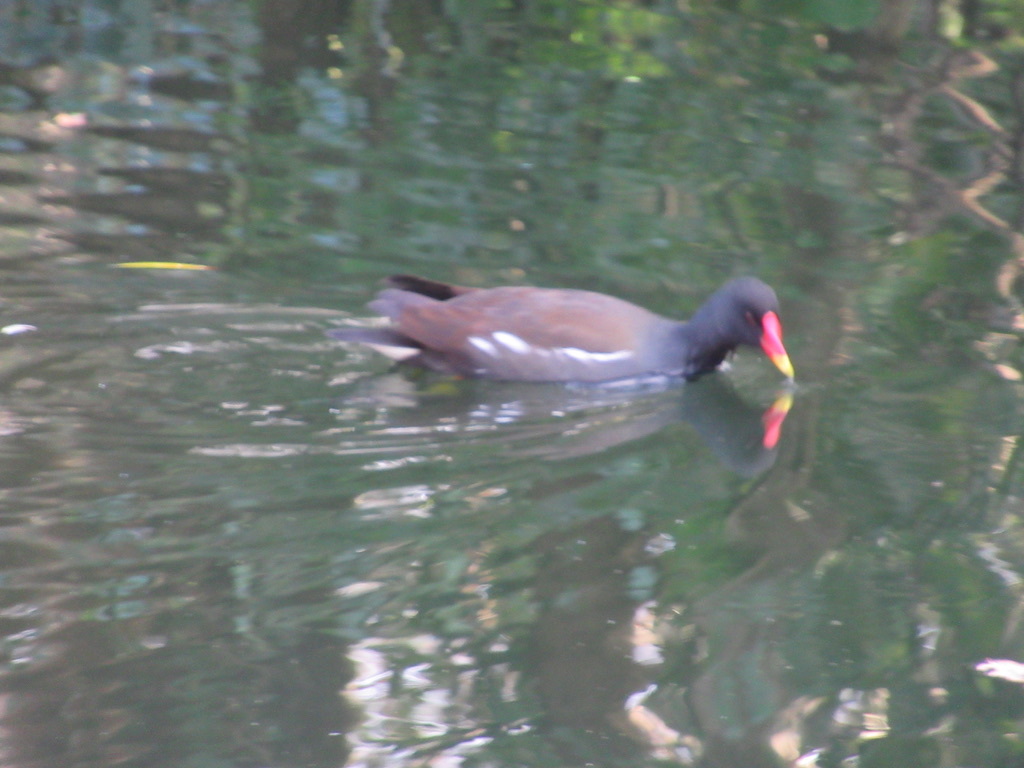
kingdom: Animalia
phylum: Chordata
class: Aves
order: Gruiformes
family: Rallidae
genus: Gallinula
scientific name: Gallinula chloropus
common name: Common moorhen
